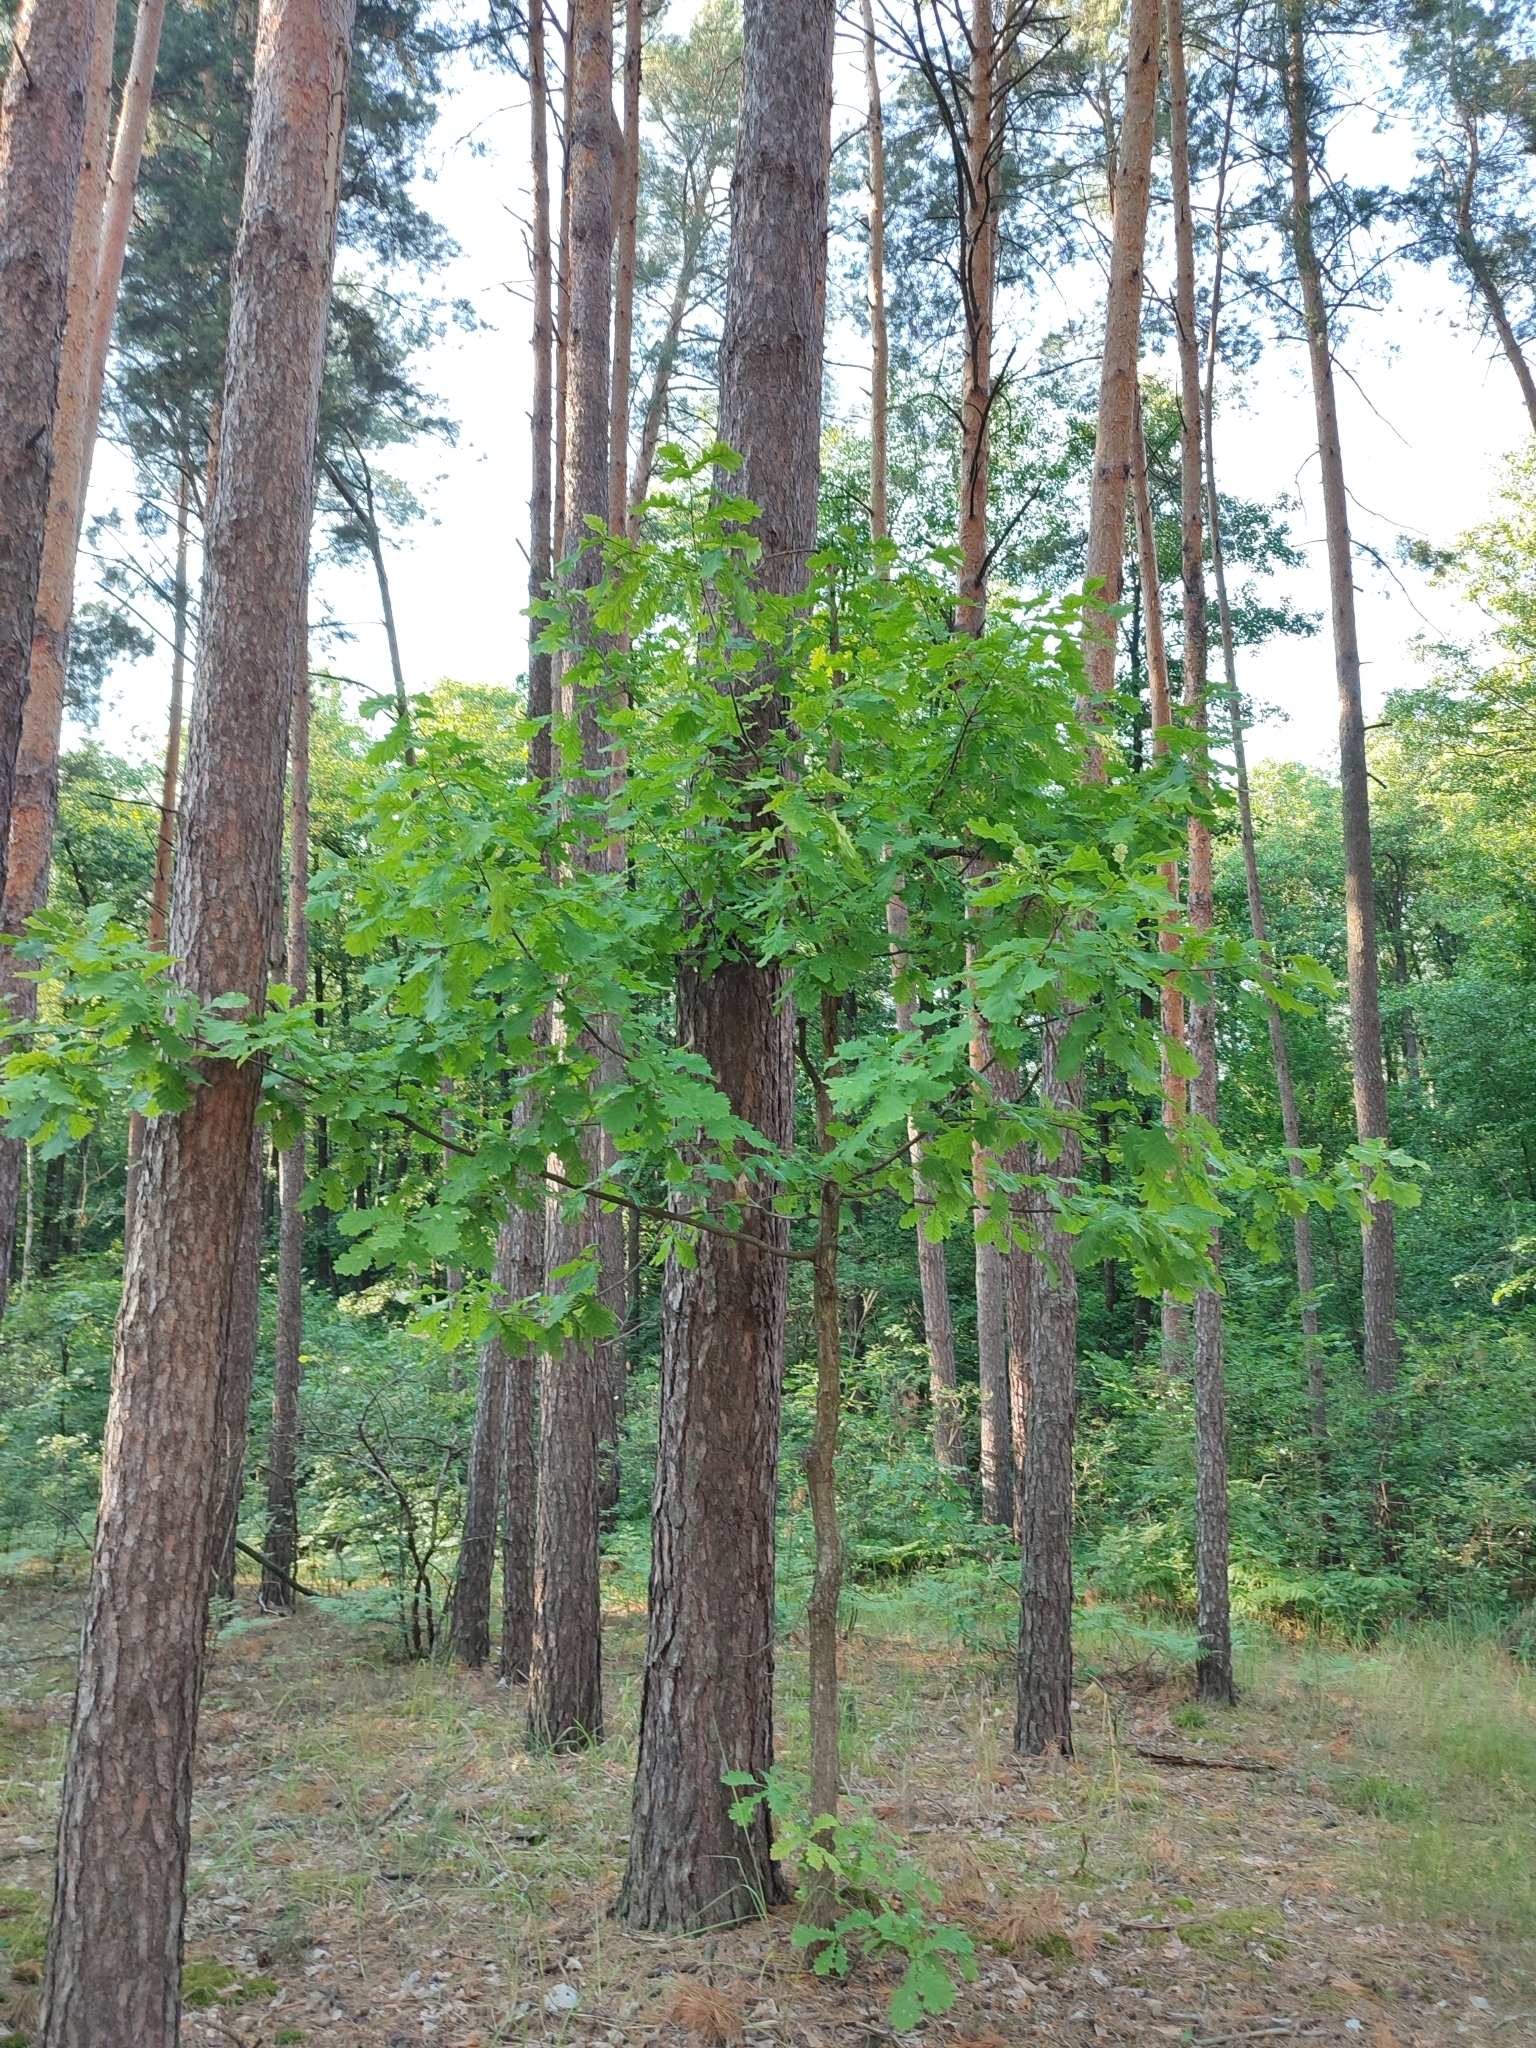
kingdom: Plantae
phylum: Tracheophyta
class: Magnoliopsida
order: Fagales
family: Fagaceae
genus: Quercus
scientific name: Quercus robur
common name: Pedunculate oak
